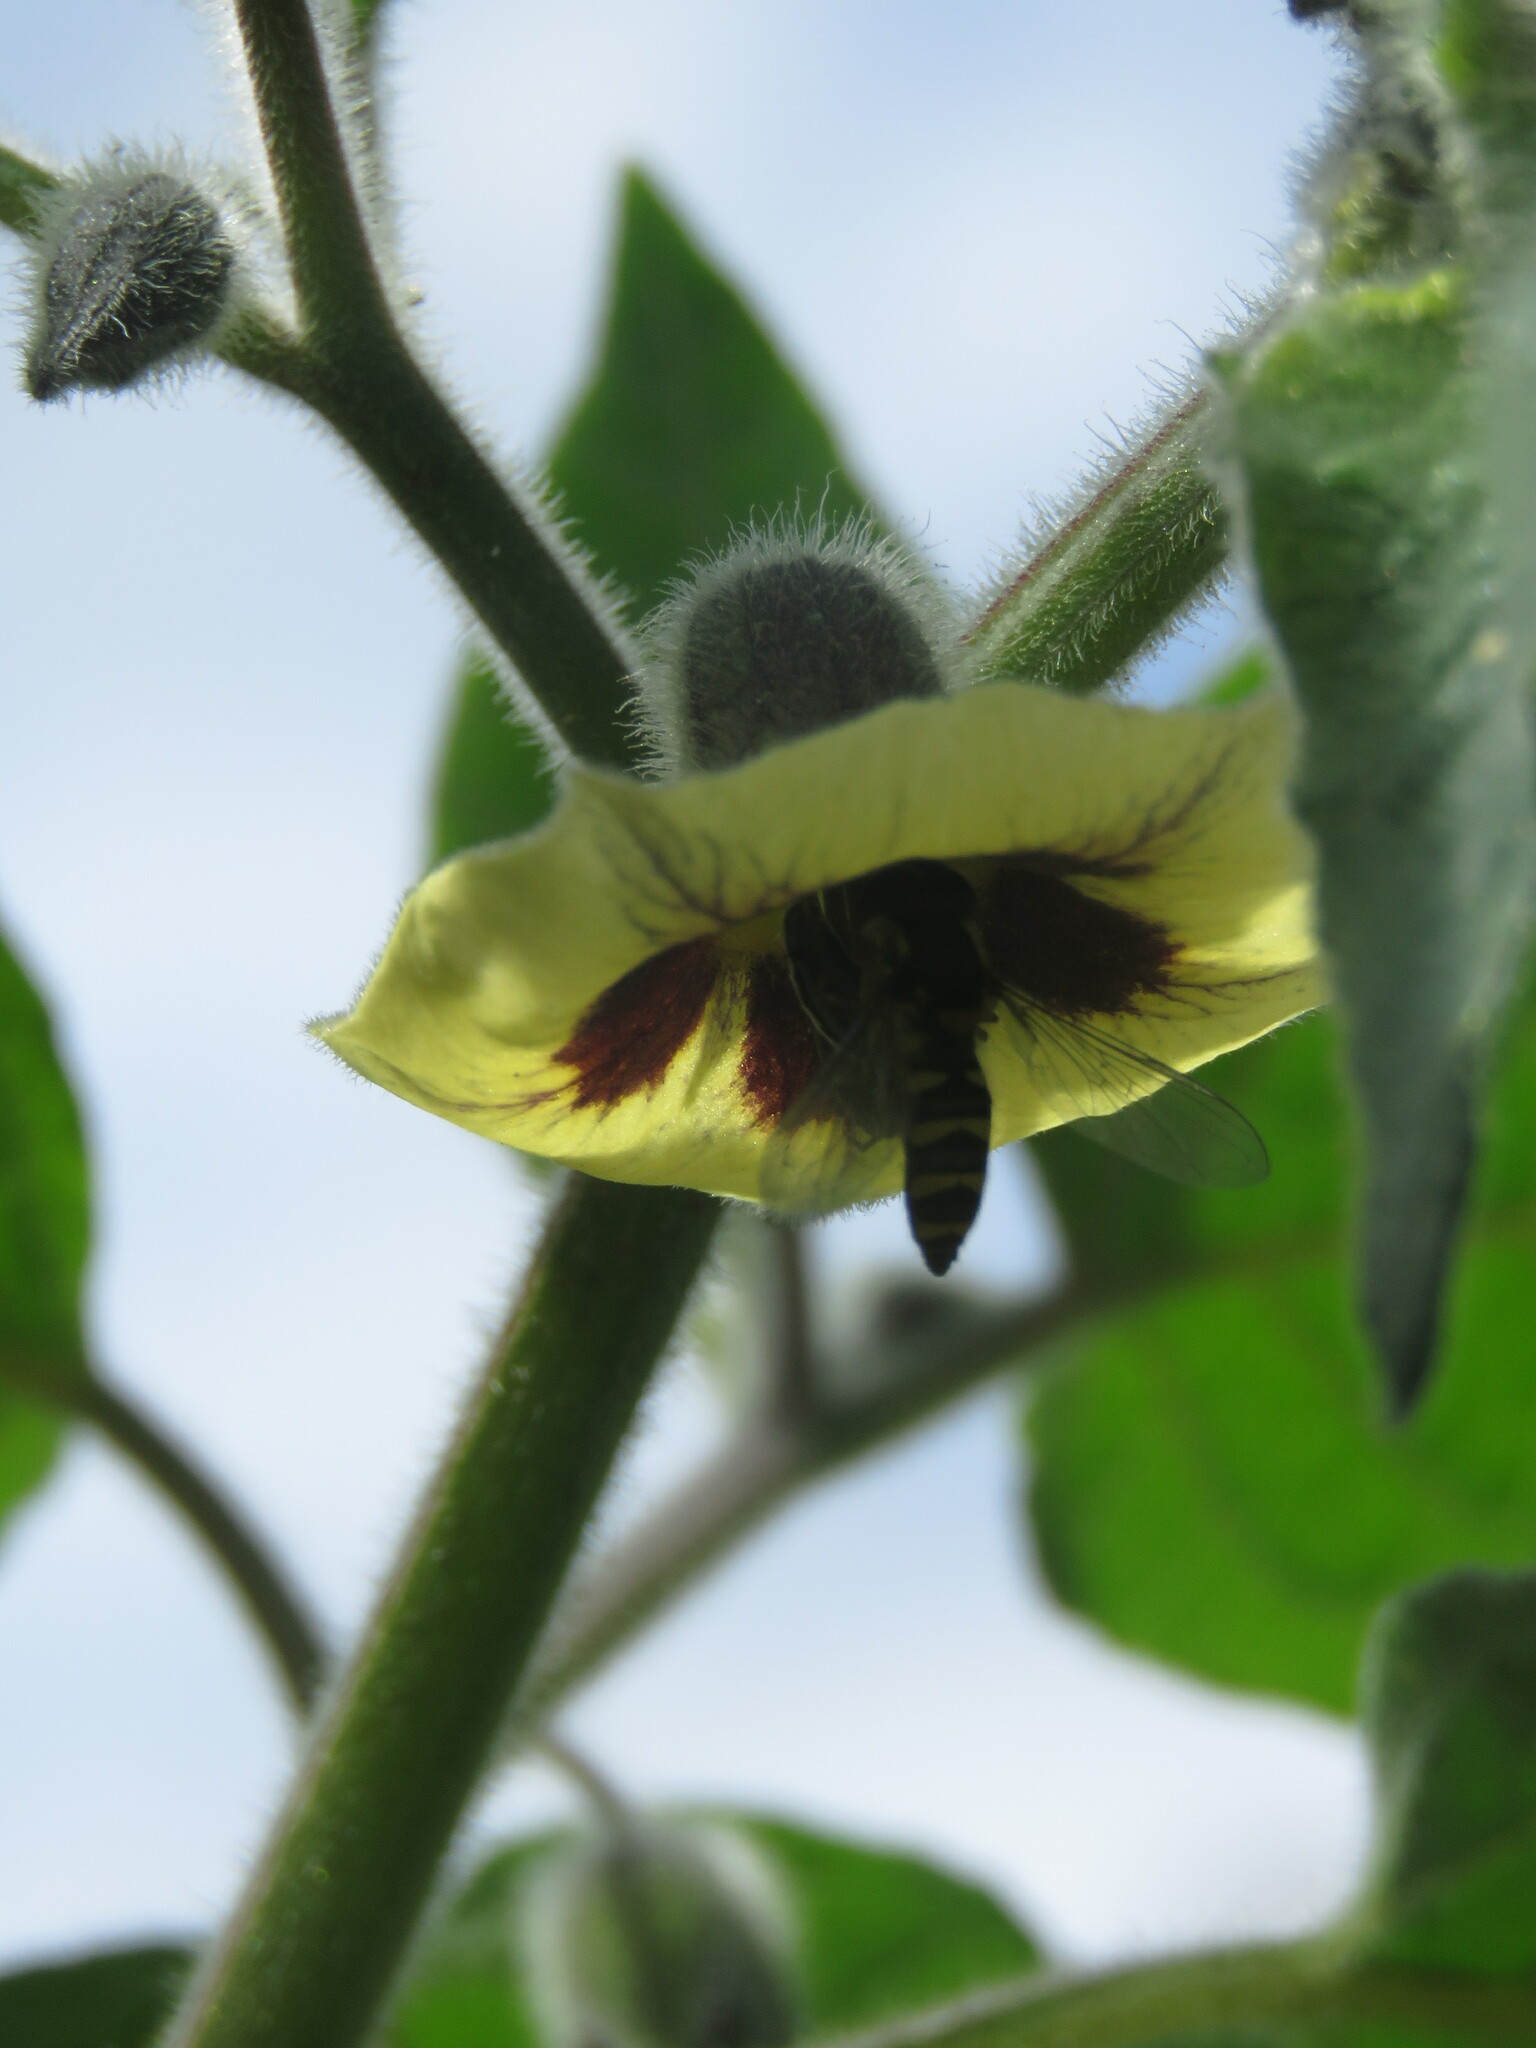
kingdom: Plantae
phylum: Tracheophyta
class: Magnoliopsida
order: Solanales
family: Solanaceae
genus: Physalis
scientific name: Physalis peruviana
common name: Cape-gooseberry
